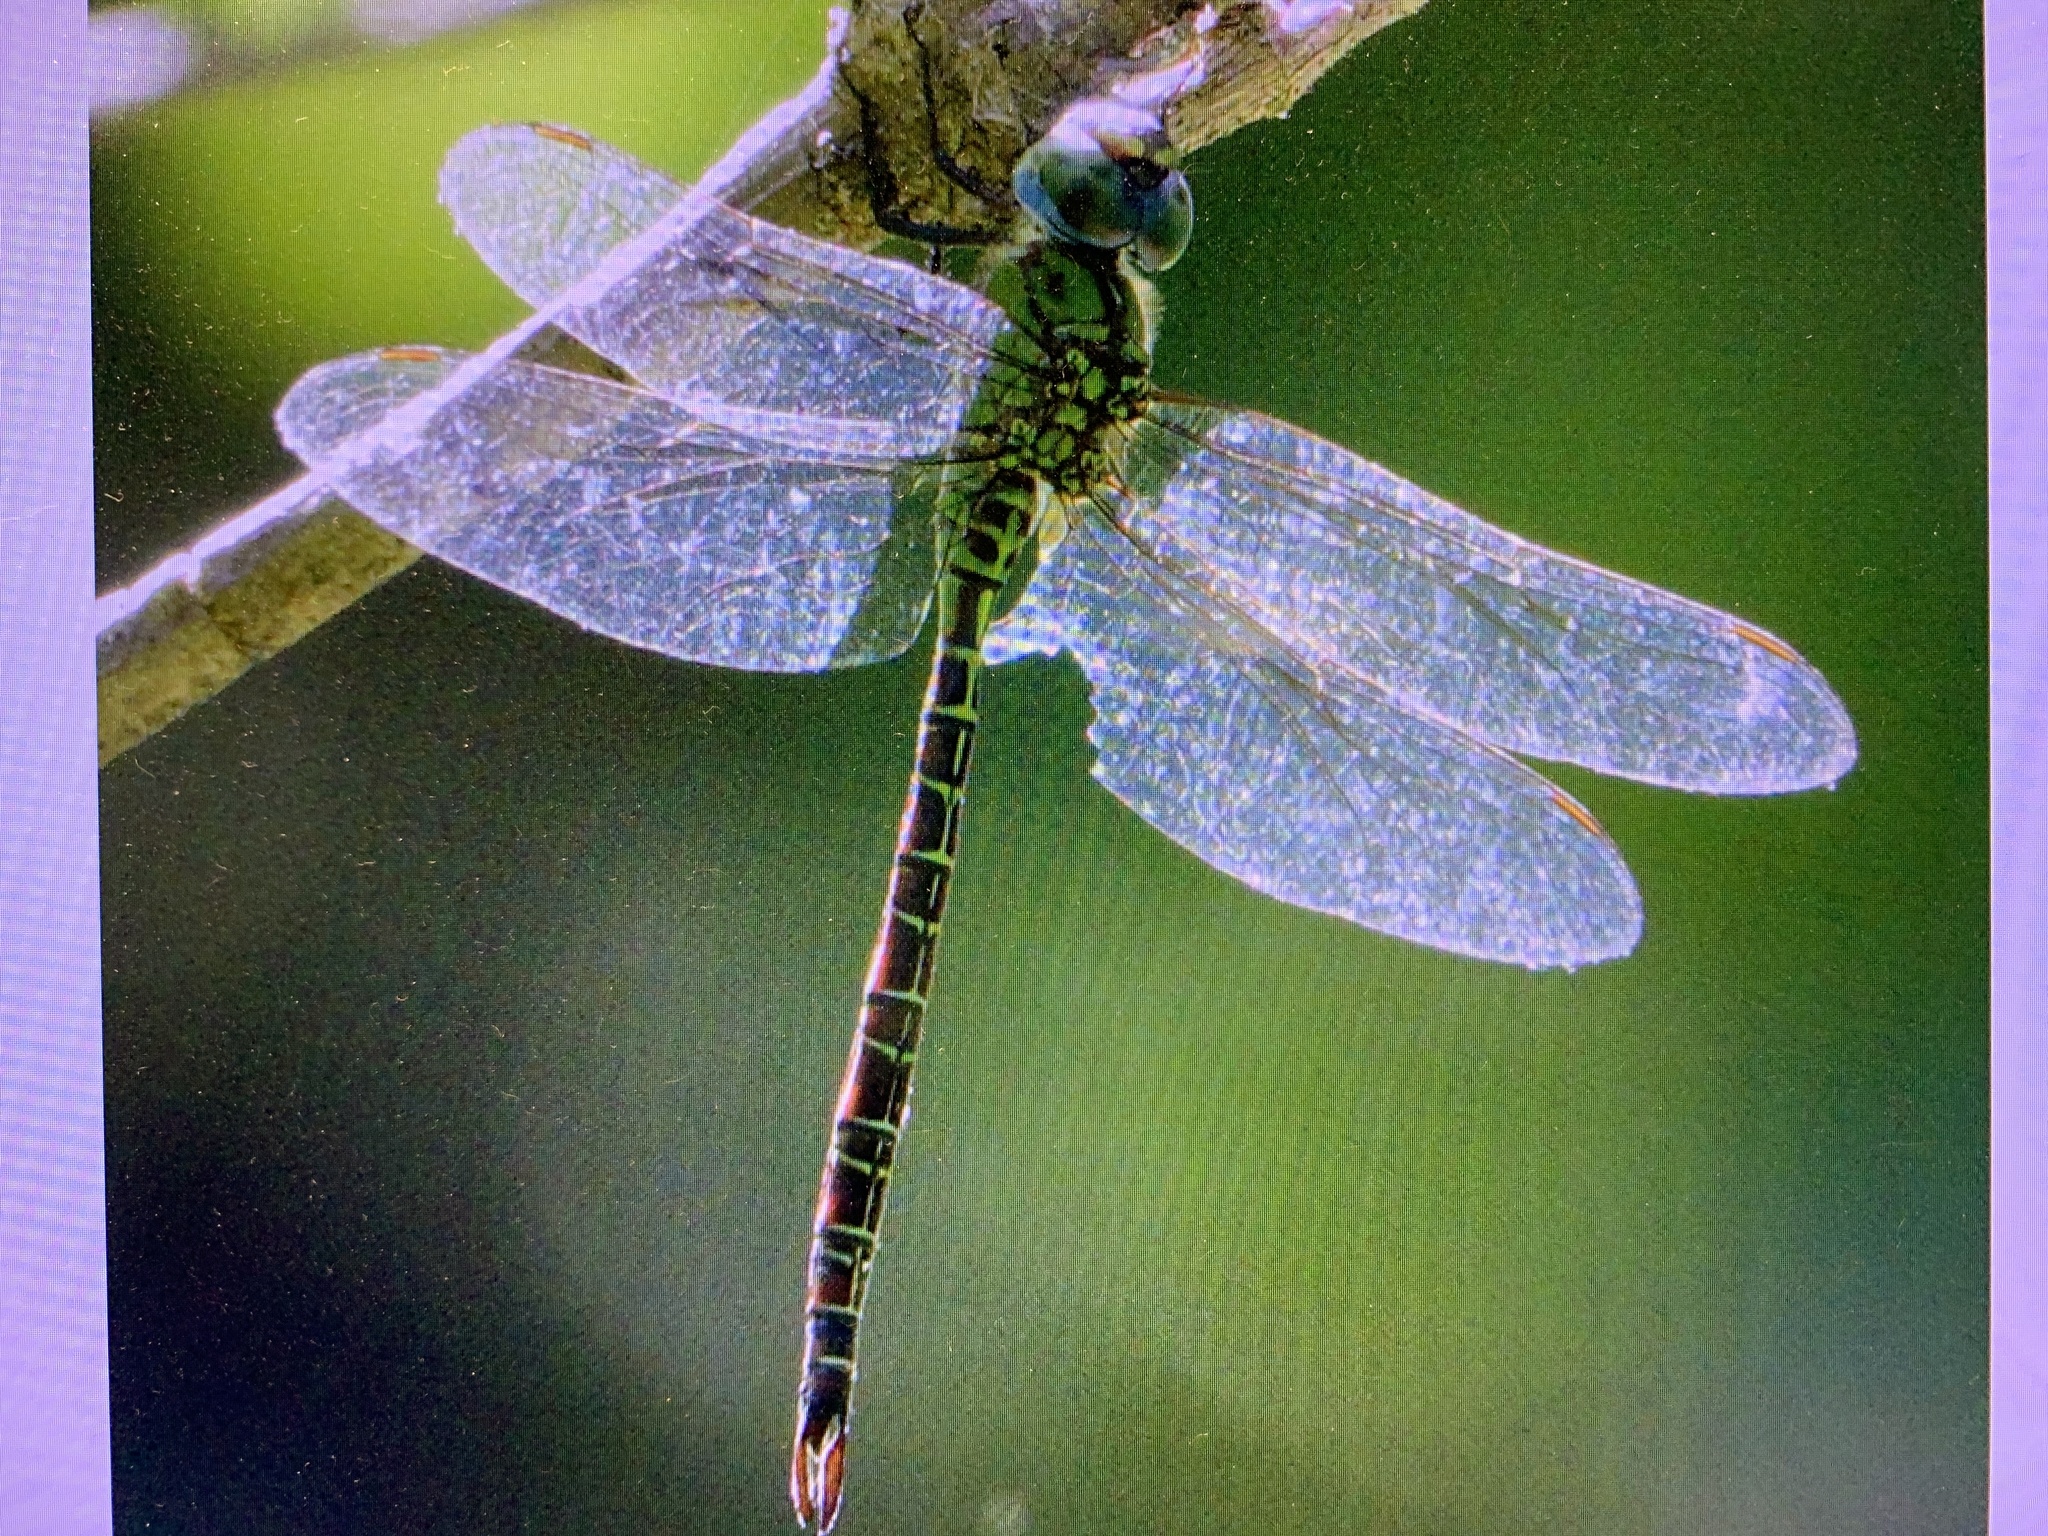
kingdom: Animalia
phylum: Arthropoda
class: Insecta
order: Odonata
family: Aeshnidae
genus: Coryphaeschna
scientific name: Coryphaeschna adnexa
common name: Blue-faced darner
